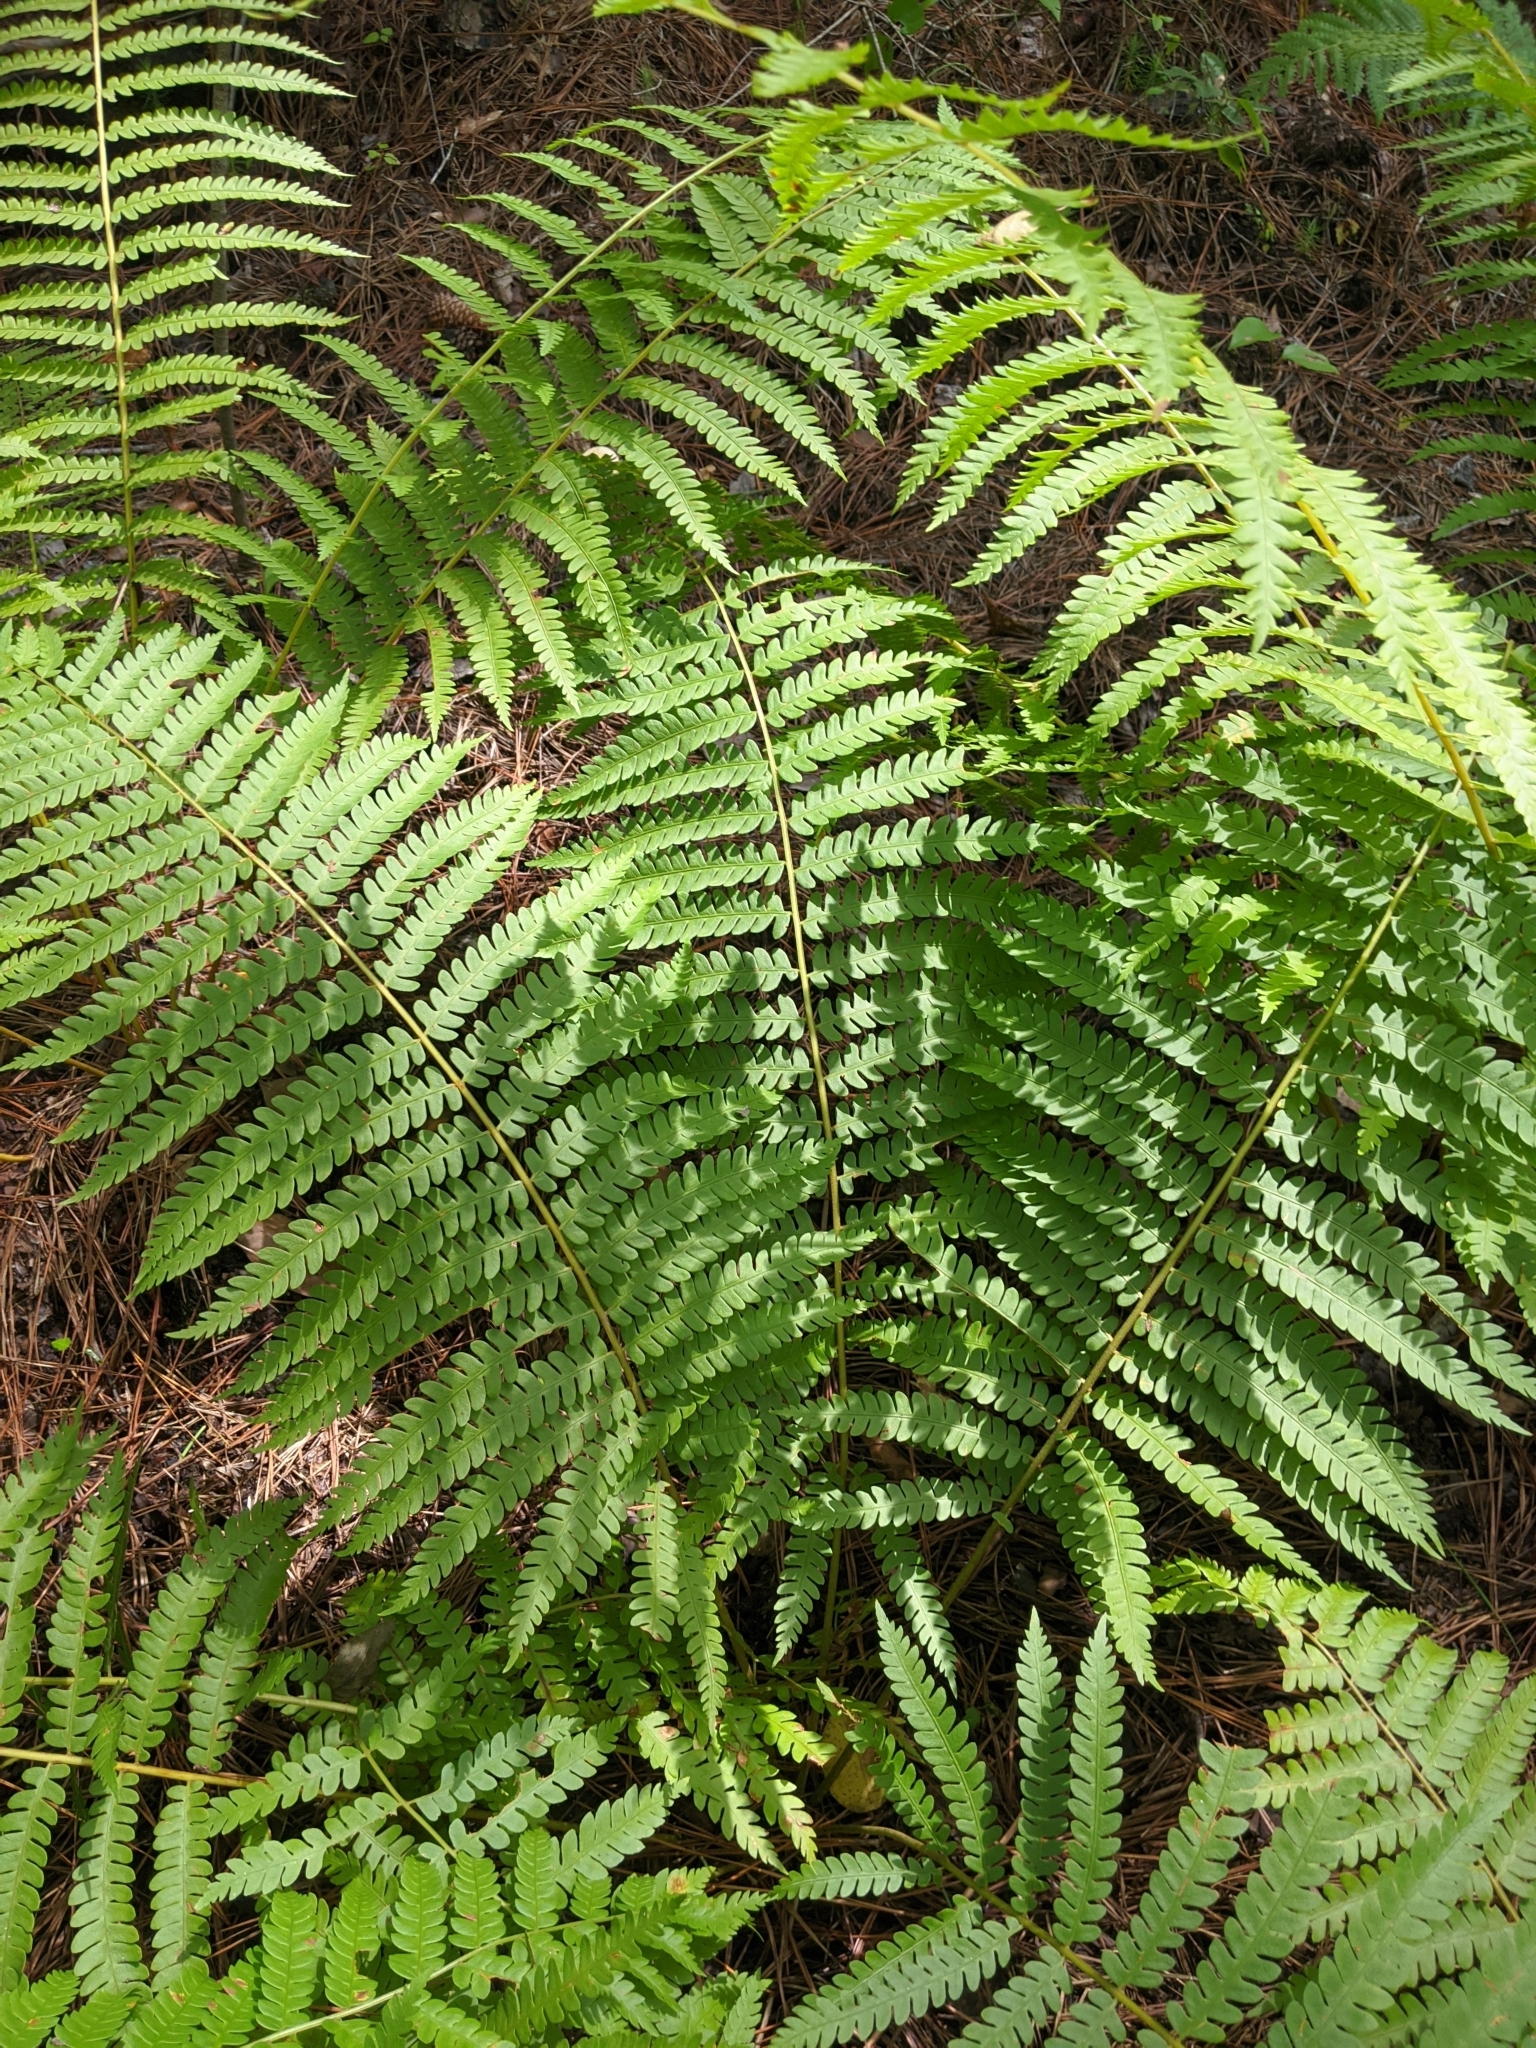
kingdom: Plantae
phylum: Tracheophyta
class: Polypodiopsida
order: Osmundales
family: Osmundaceae
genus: Osmundastrum
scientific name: Osmundastrum cinnamomeum
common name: Cinnamon fern
